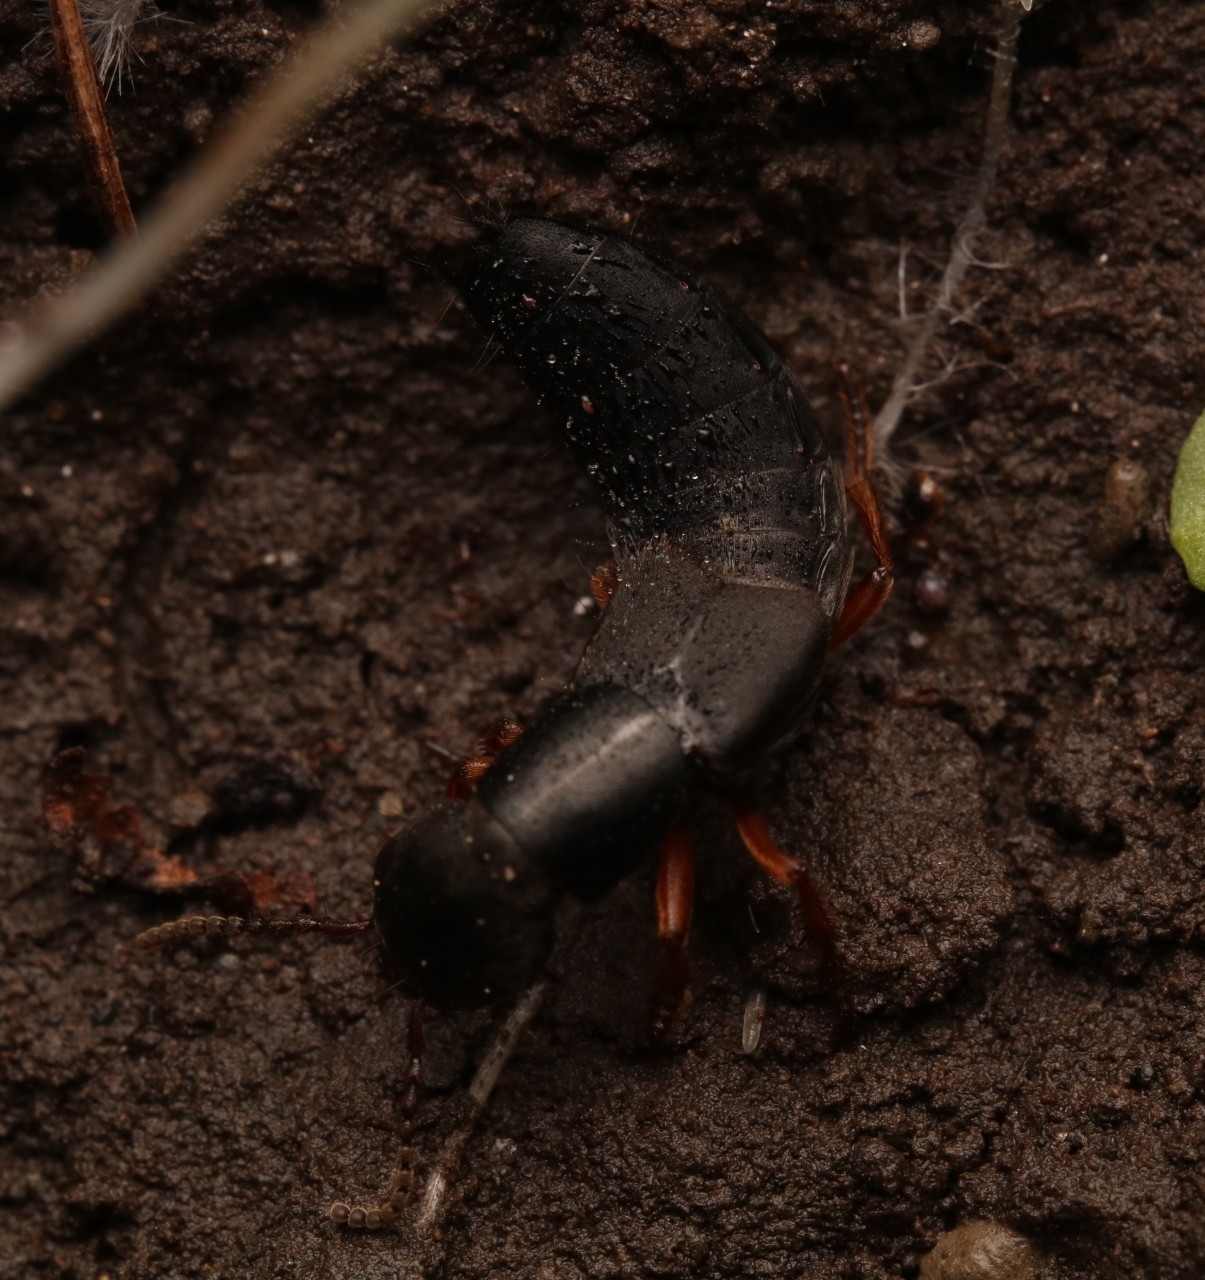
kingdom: Animalia
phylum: Arthropoda
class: Insecta
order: Coleoptera
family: Staphylinidae
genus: Dinothenarus
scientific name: Dinothenarus badipes
